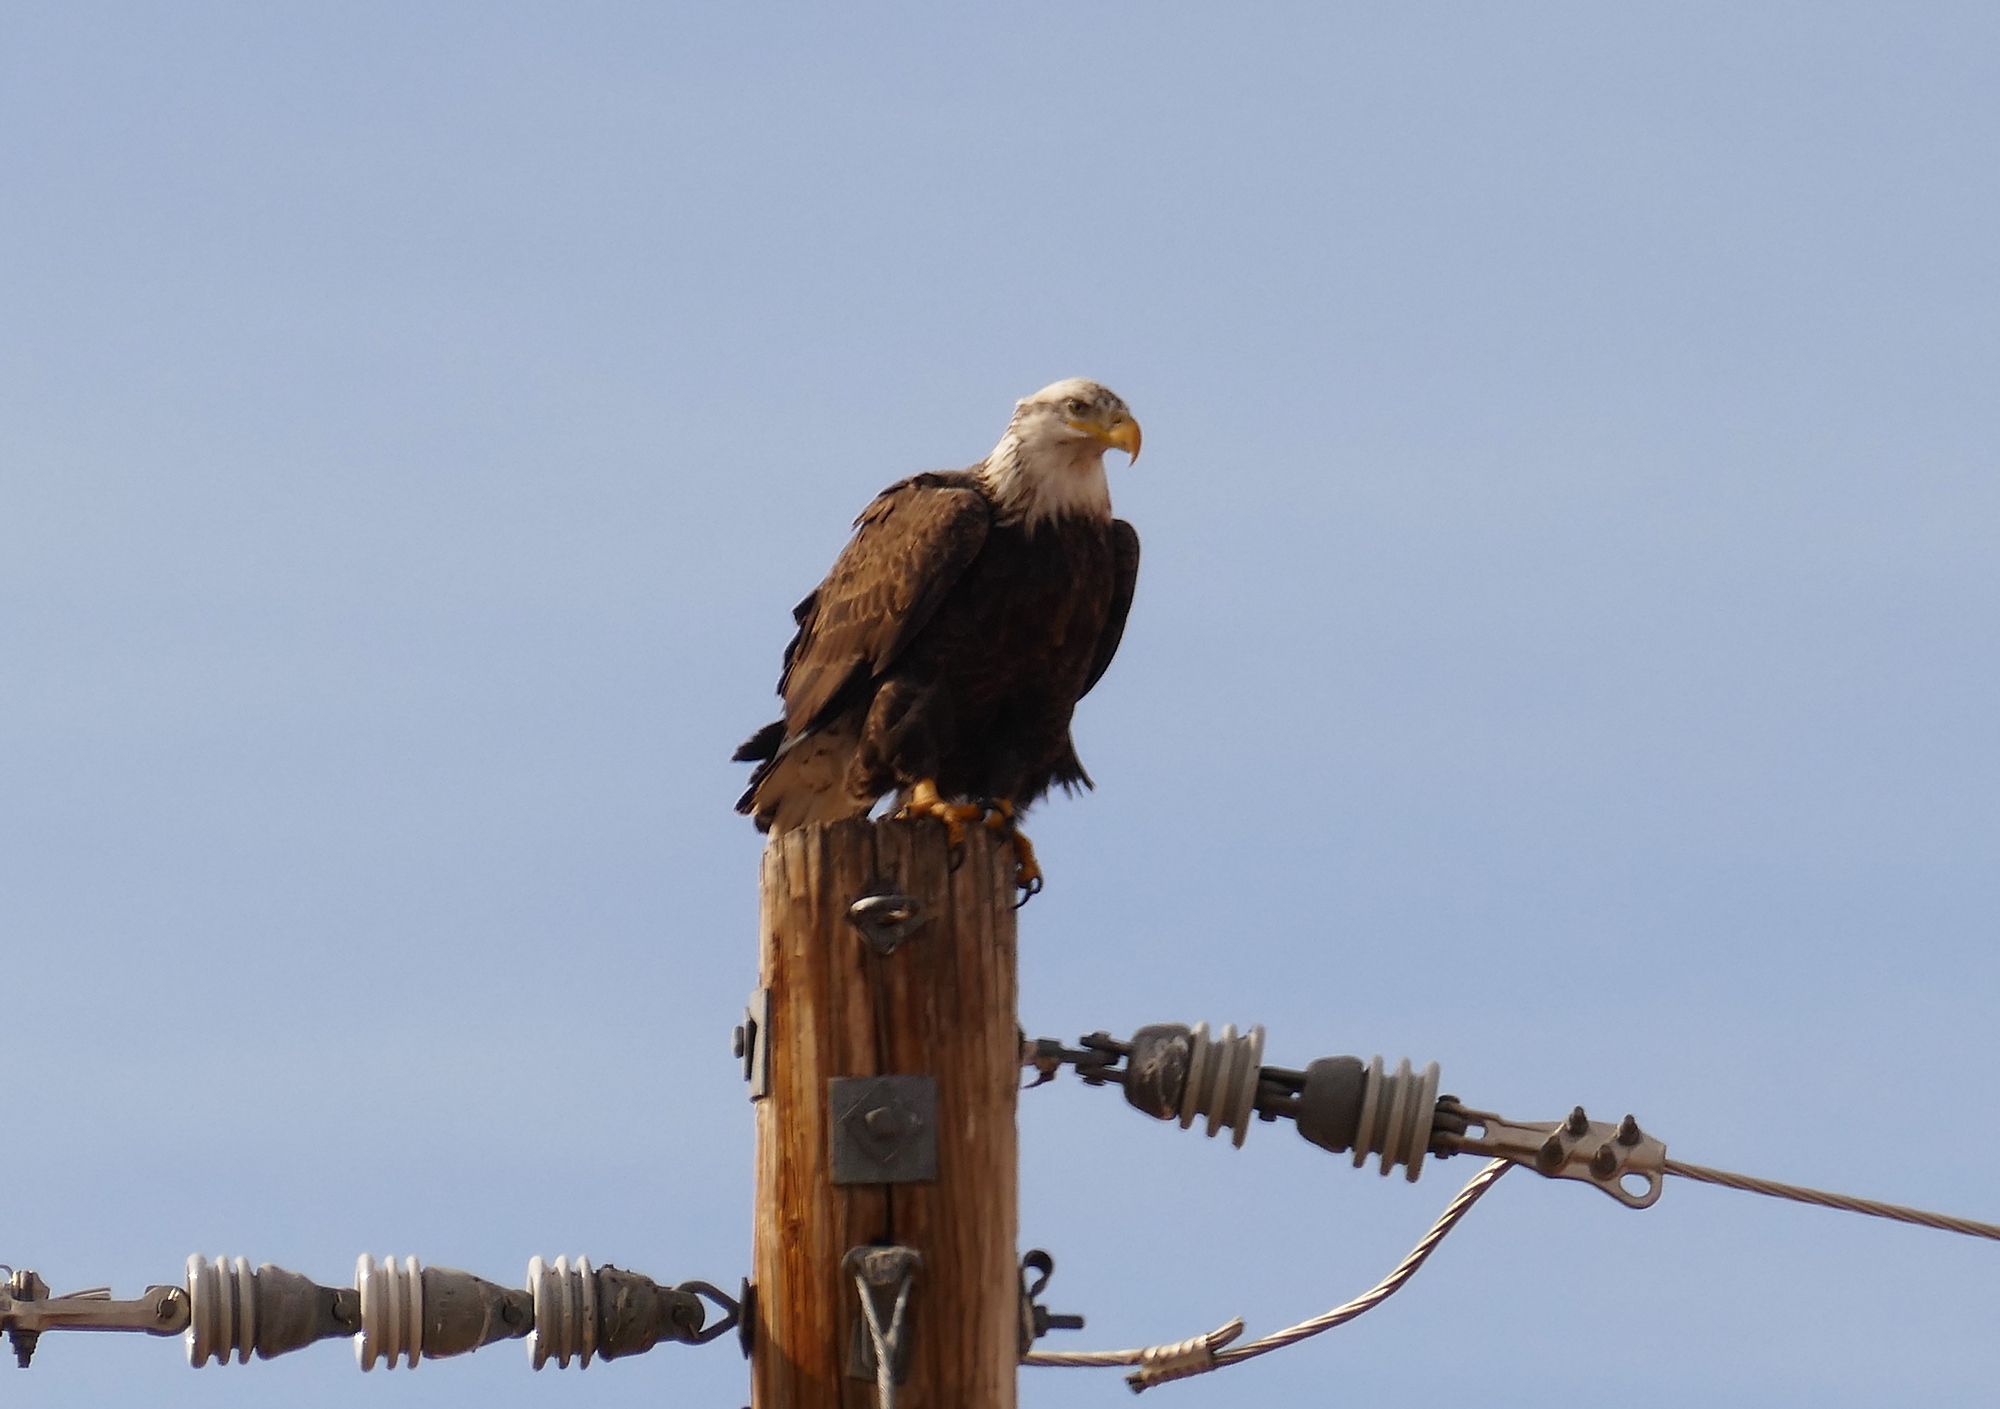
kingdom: Animalia
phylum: Chordata
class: Aves
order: Accipitriformes
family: Accipitridae
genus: Haliaeetus
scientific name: Haliaeetus leucocephalus
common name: Bald eagle
